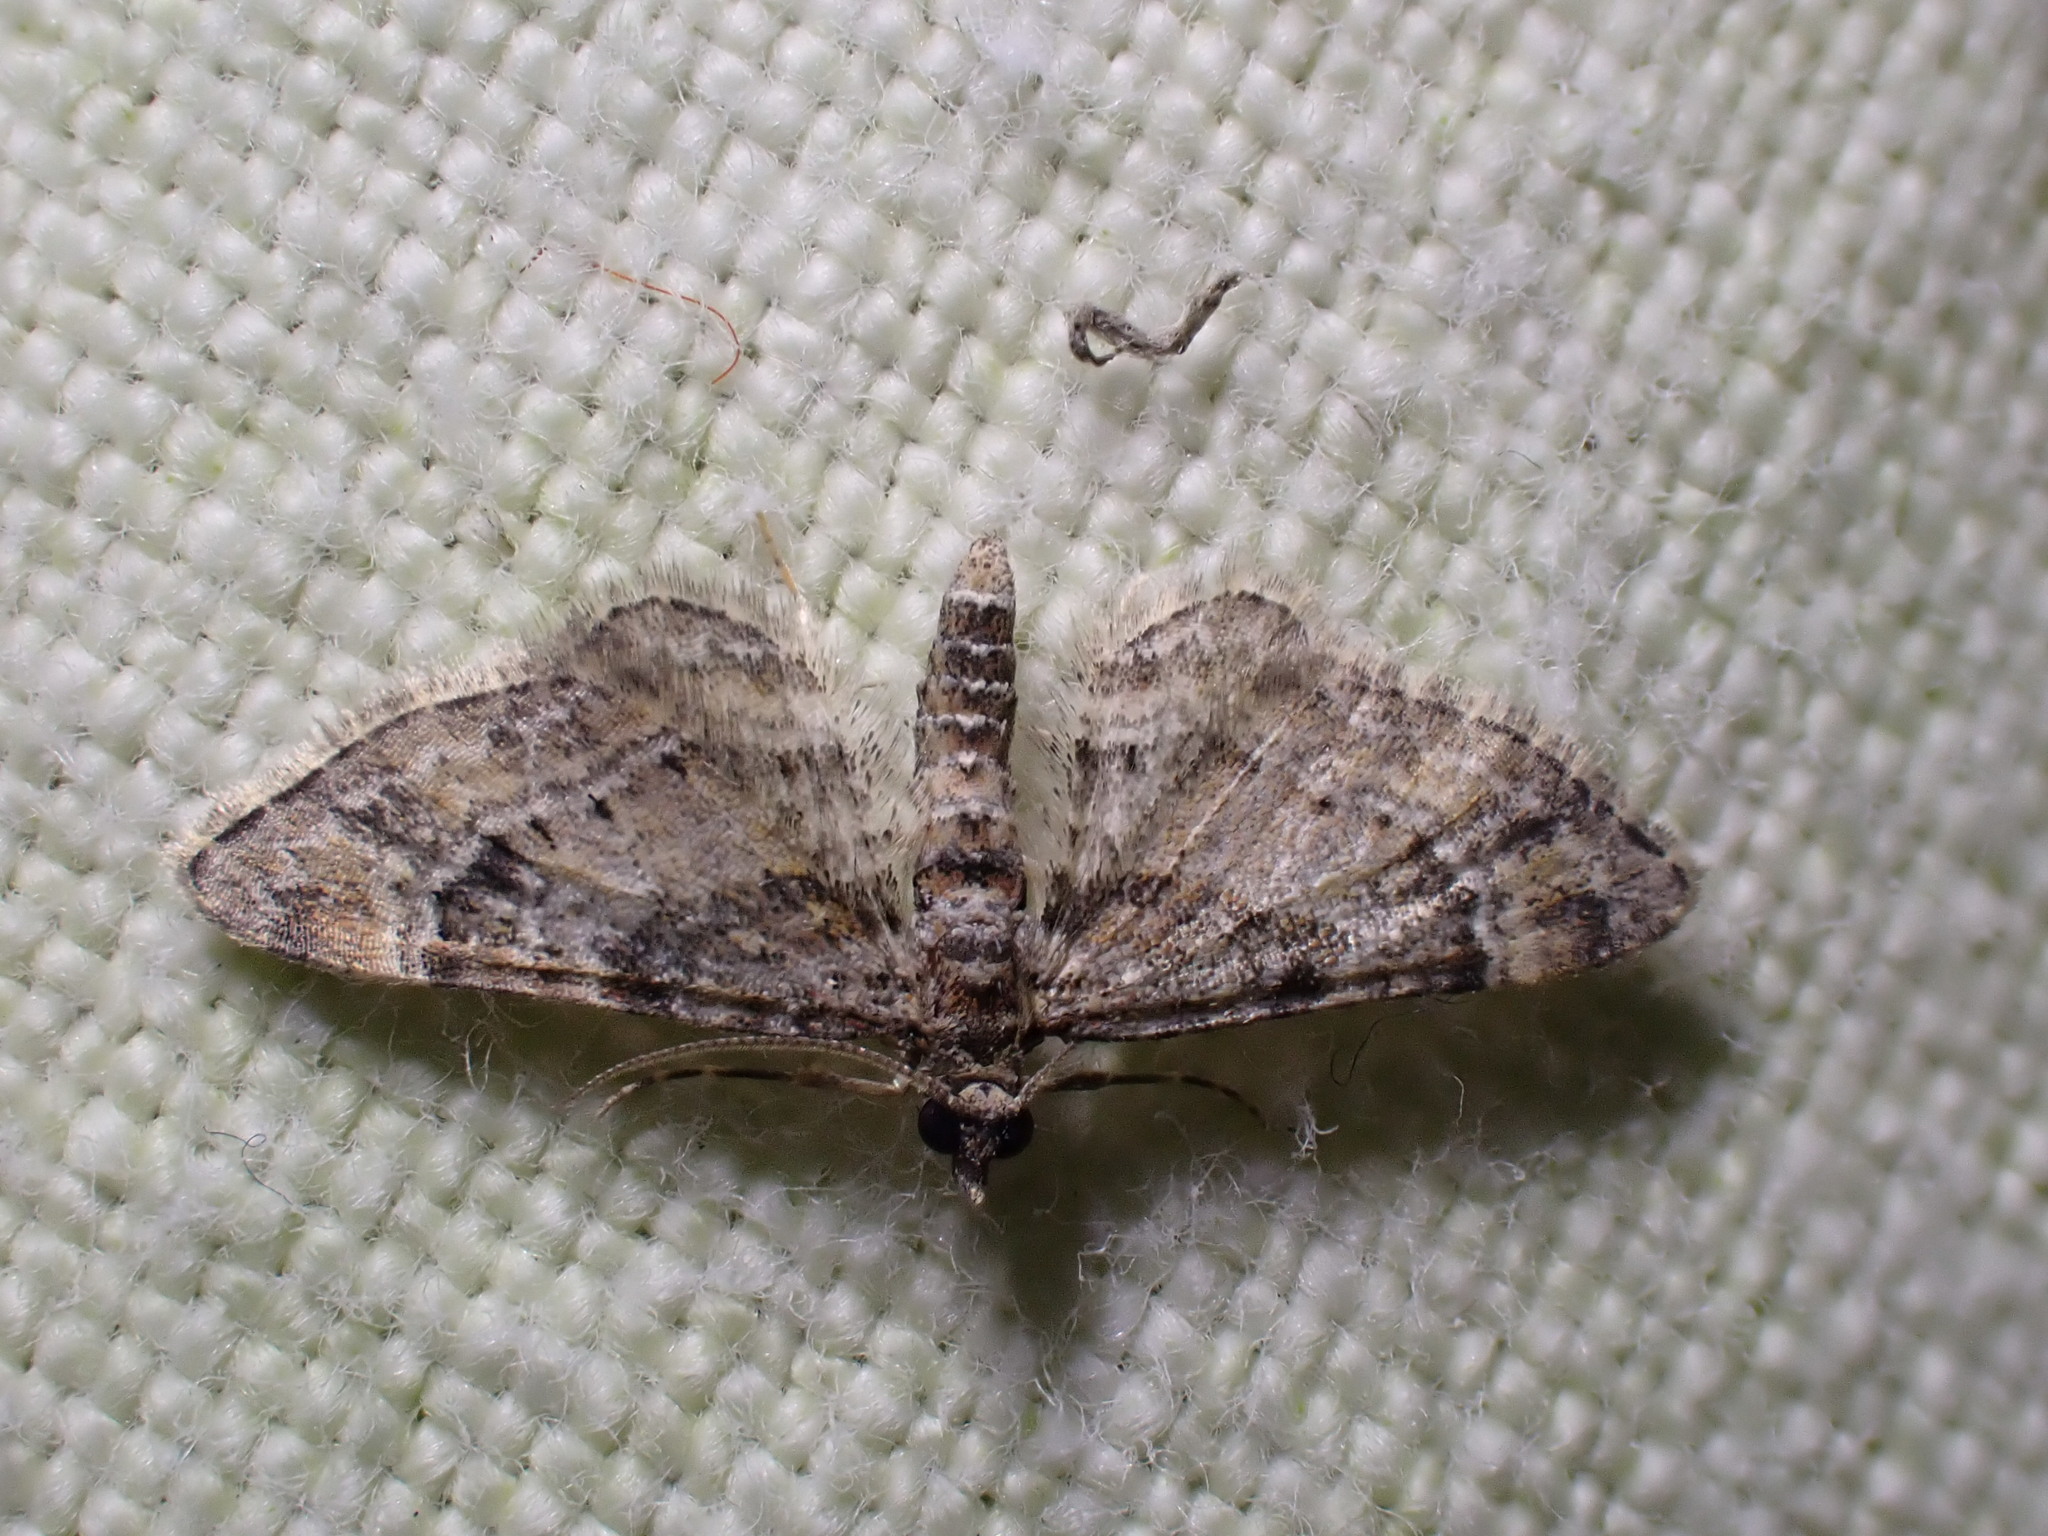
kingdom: Animalia
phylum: Arthropoda
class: Insecta
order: Lepidoptera
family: Geometridae
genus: Gymnoscelis
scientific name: Gymnoscelis rufifasciata
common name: Double-striped pug
